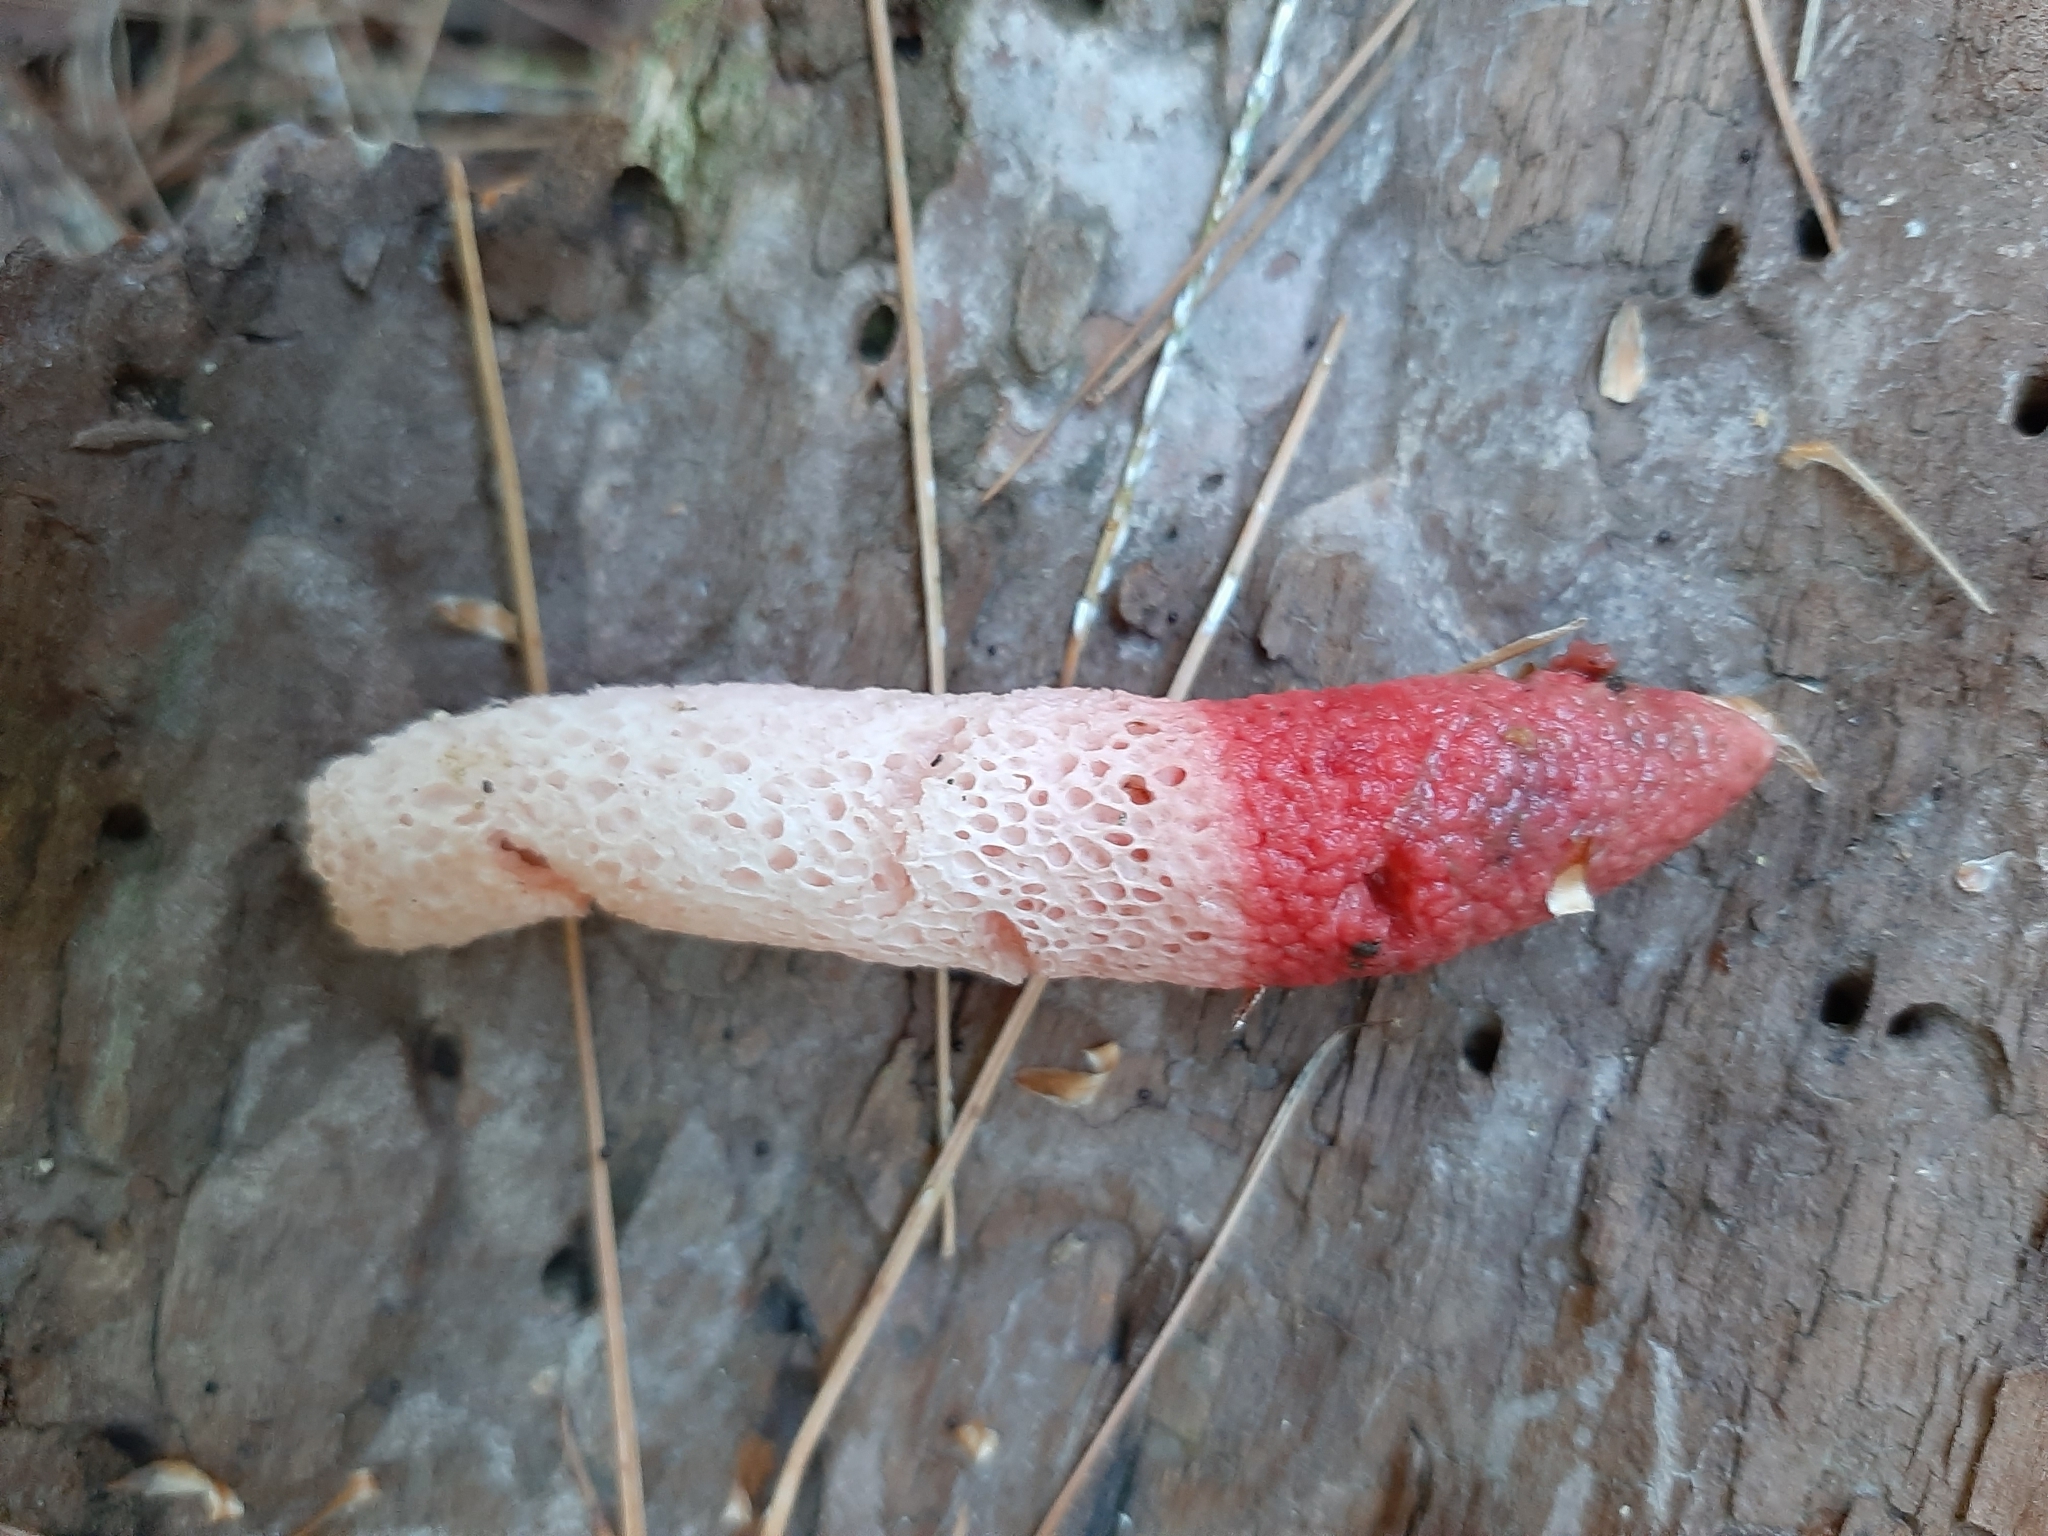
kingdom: Fungi
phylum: Basidiomycota
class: Agaricomycetes
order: Phallales
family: Phallaceae
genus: Mutinus
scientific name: Mutinus ravenelii
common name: Red stinkhorn
